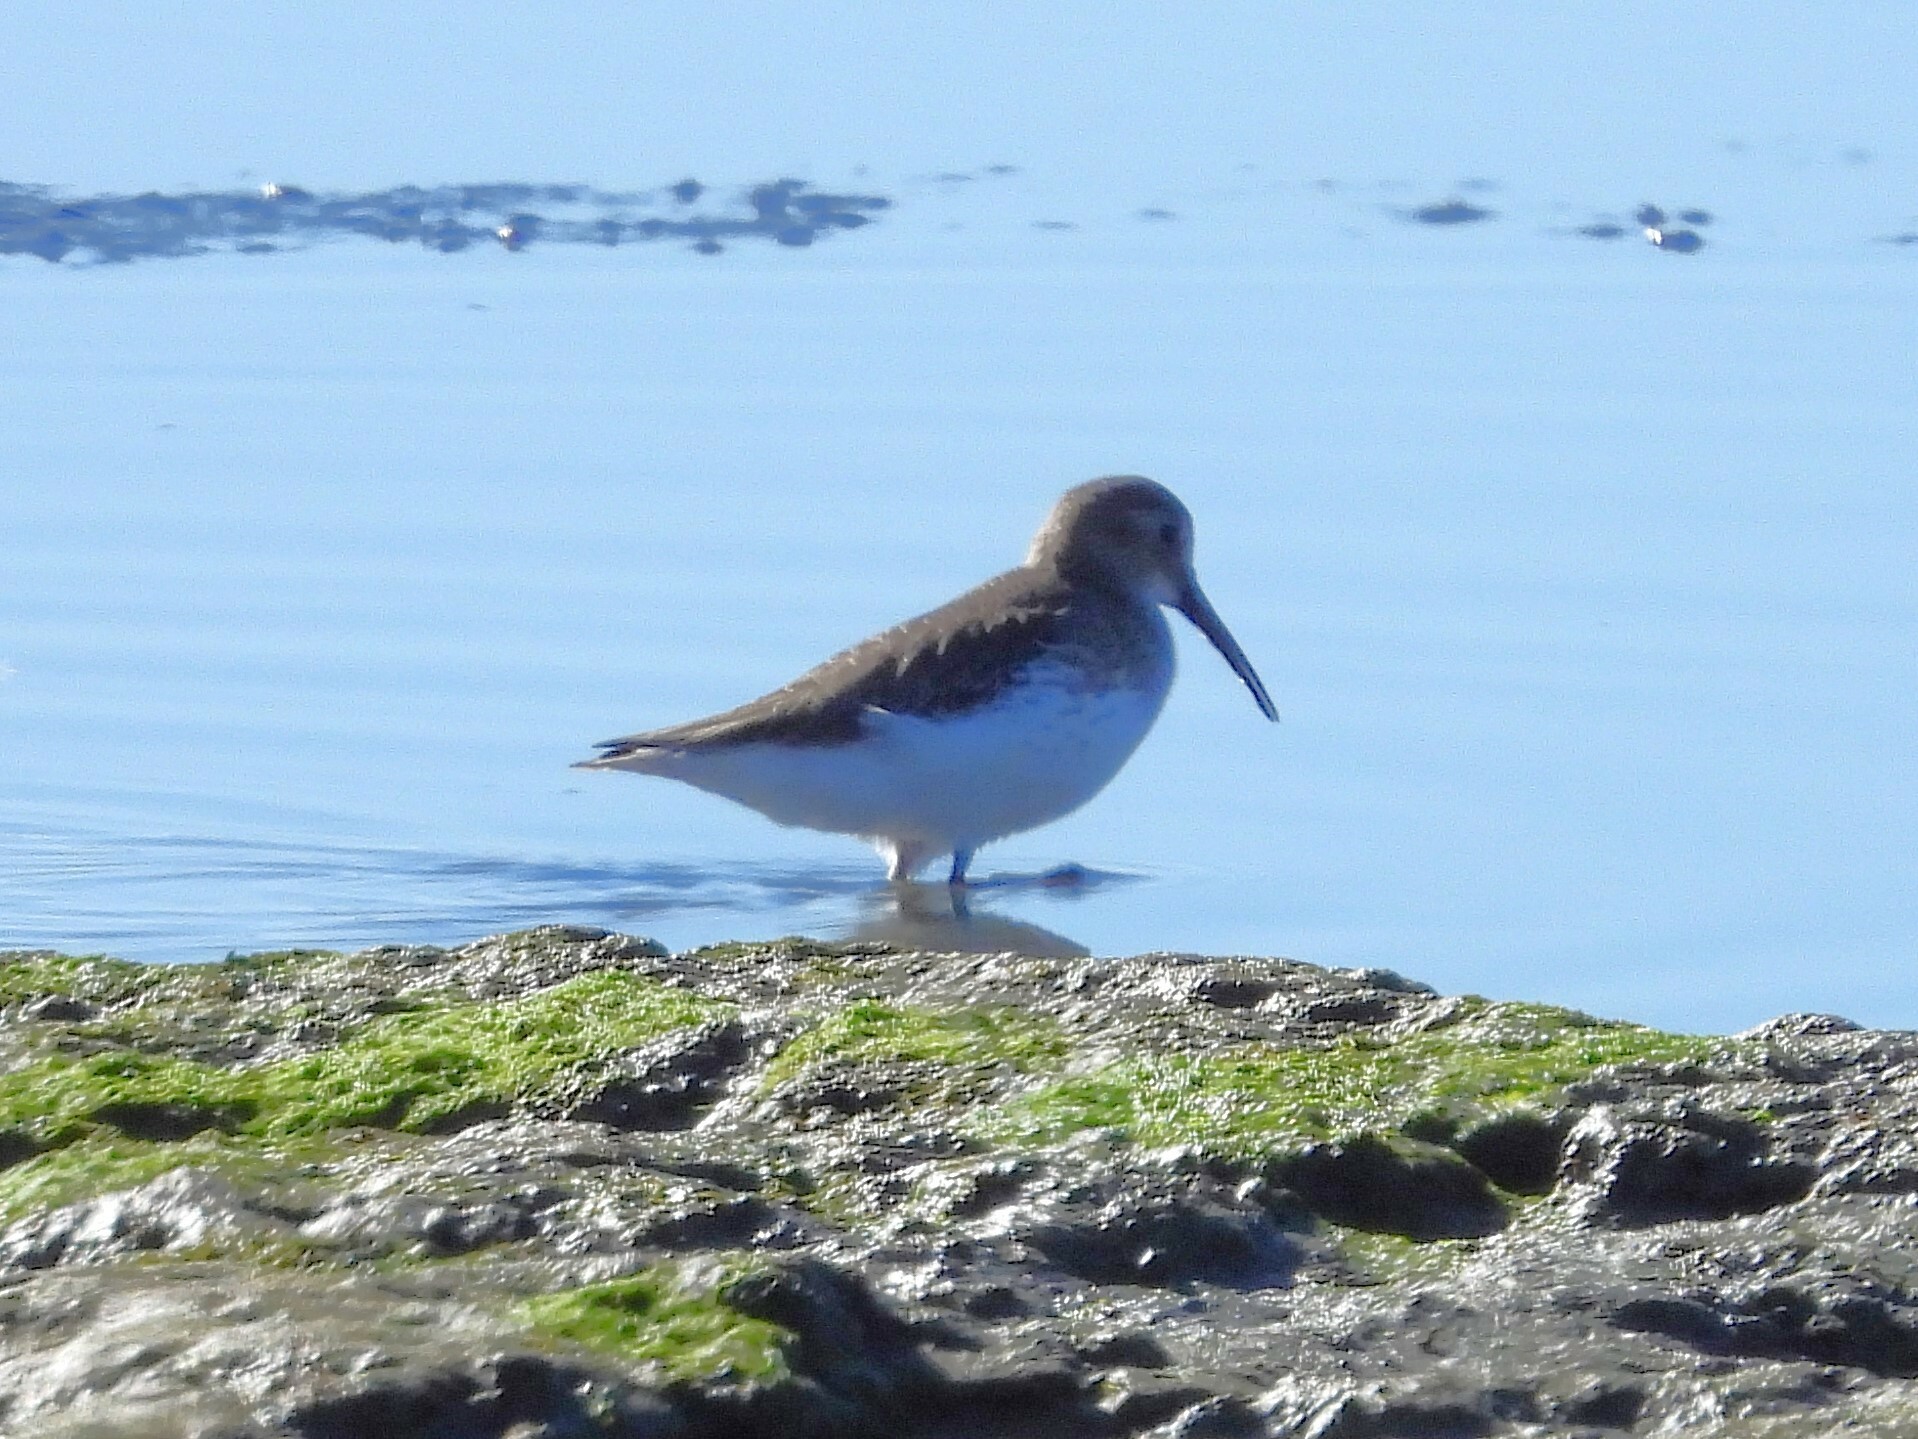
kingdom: Animalia
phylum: Chordata
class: Aves
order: Charadriiformes
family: Scolopacidae
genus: Calidris
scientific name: Calidris alpina
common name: Dunlin
